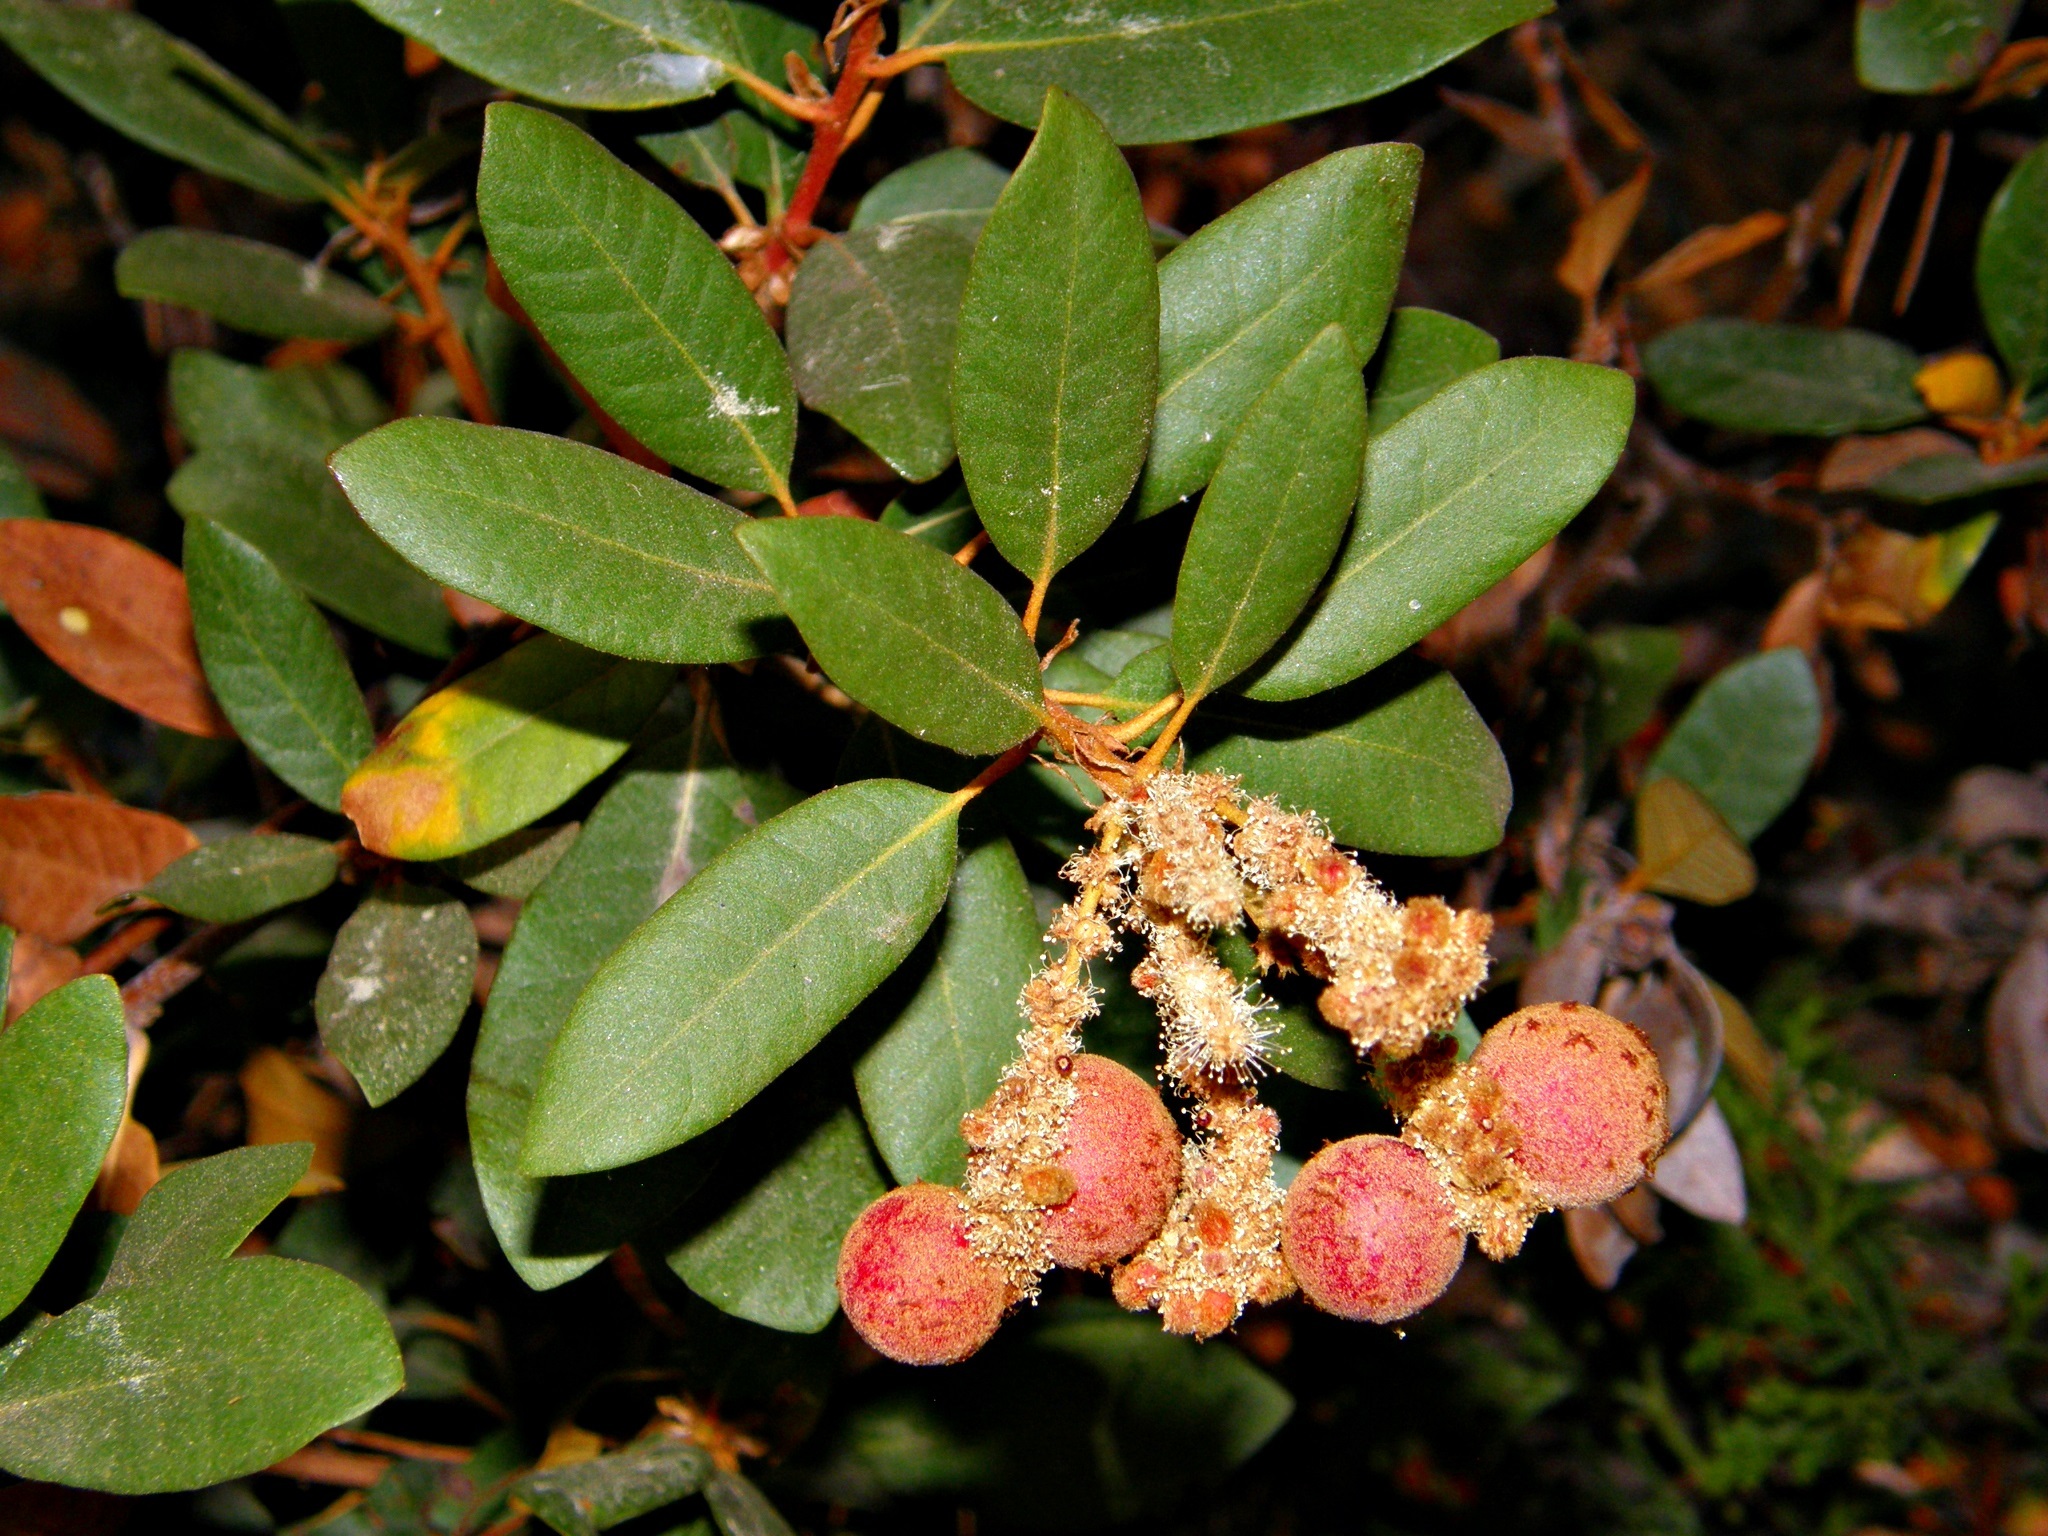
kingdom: Plantae
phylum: Tracheophyta
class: Magnoliopsida
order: Fagales
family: Fagaceae
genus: Chrysolepis
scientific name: Chrysolepis sempervirens
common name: Bush chinquapin
